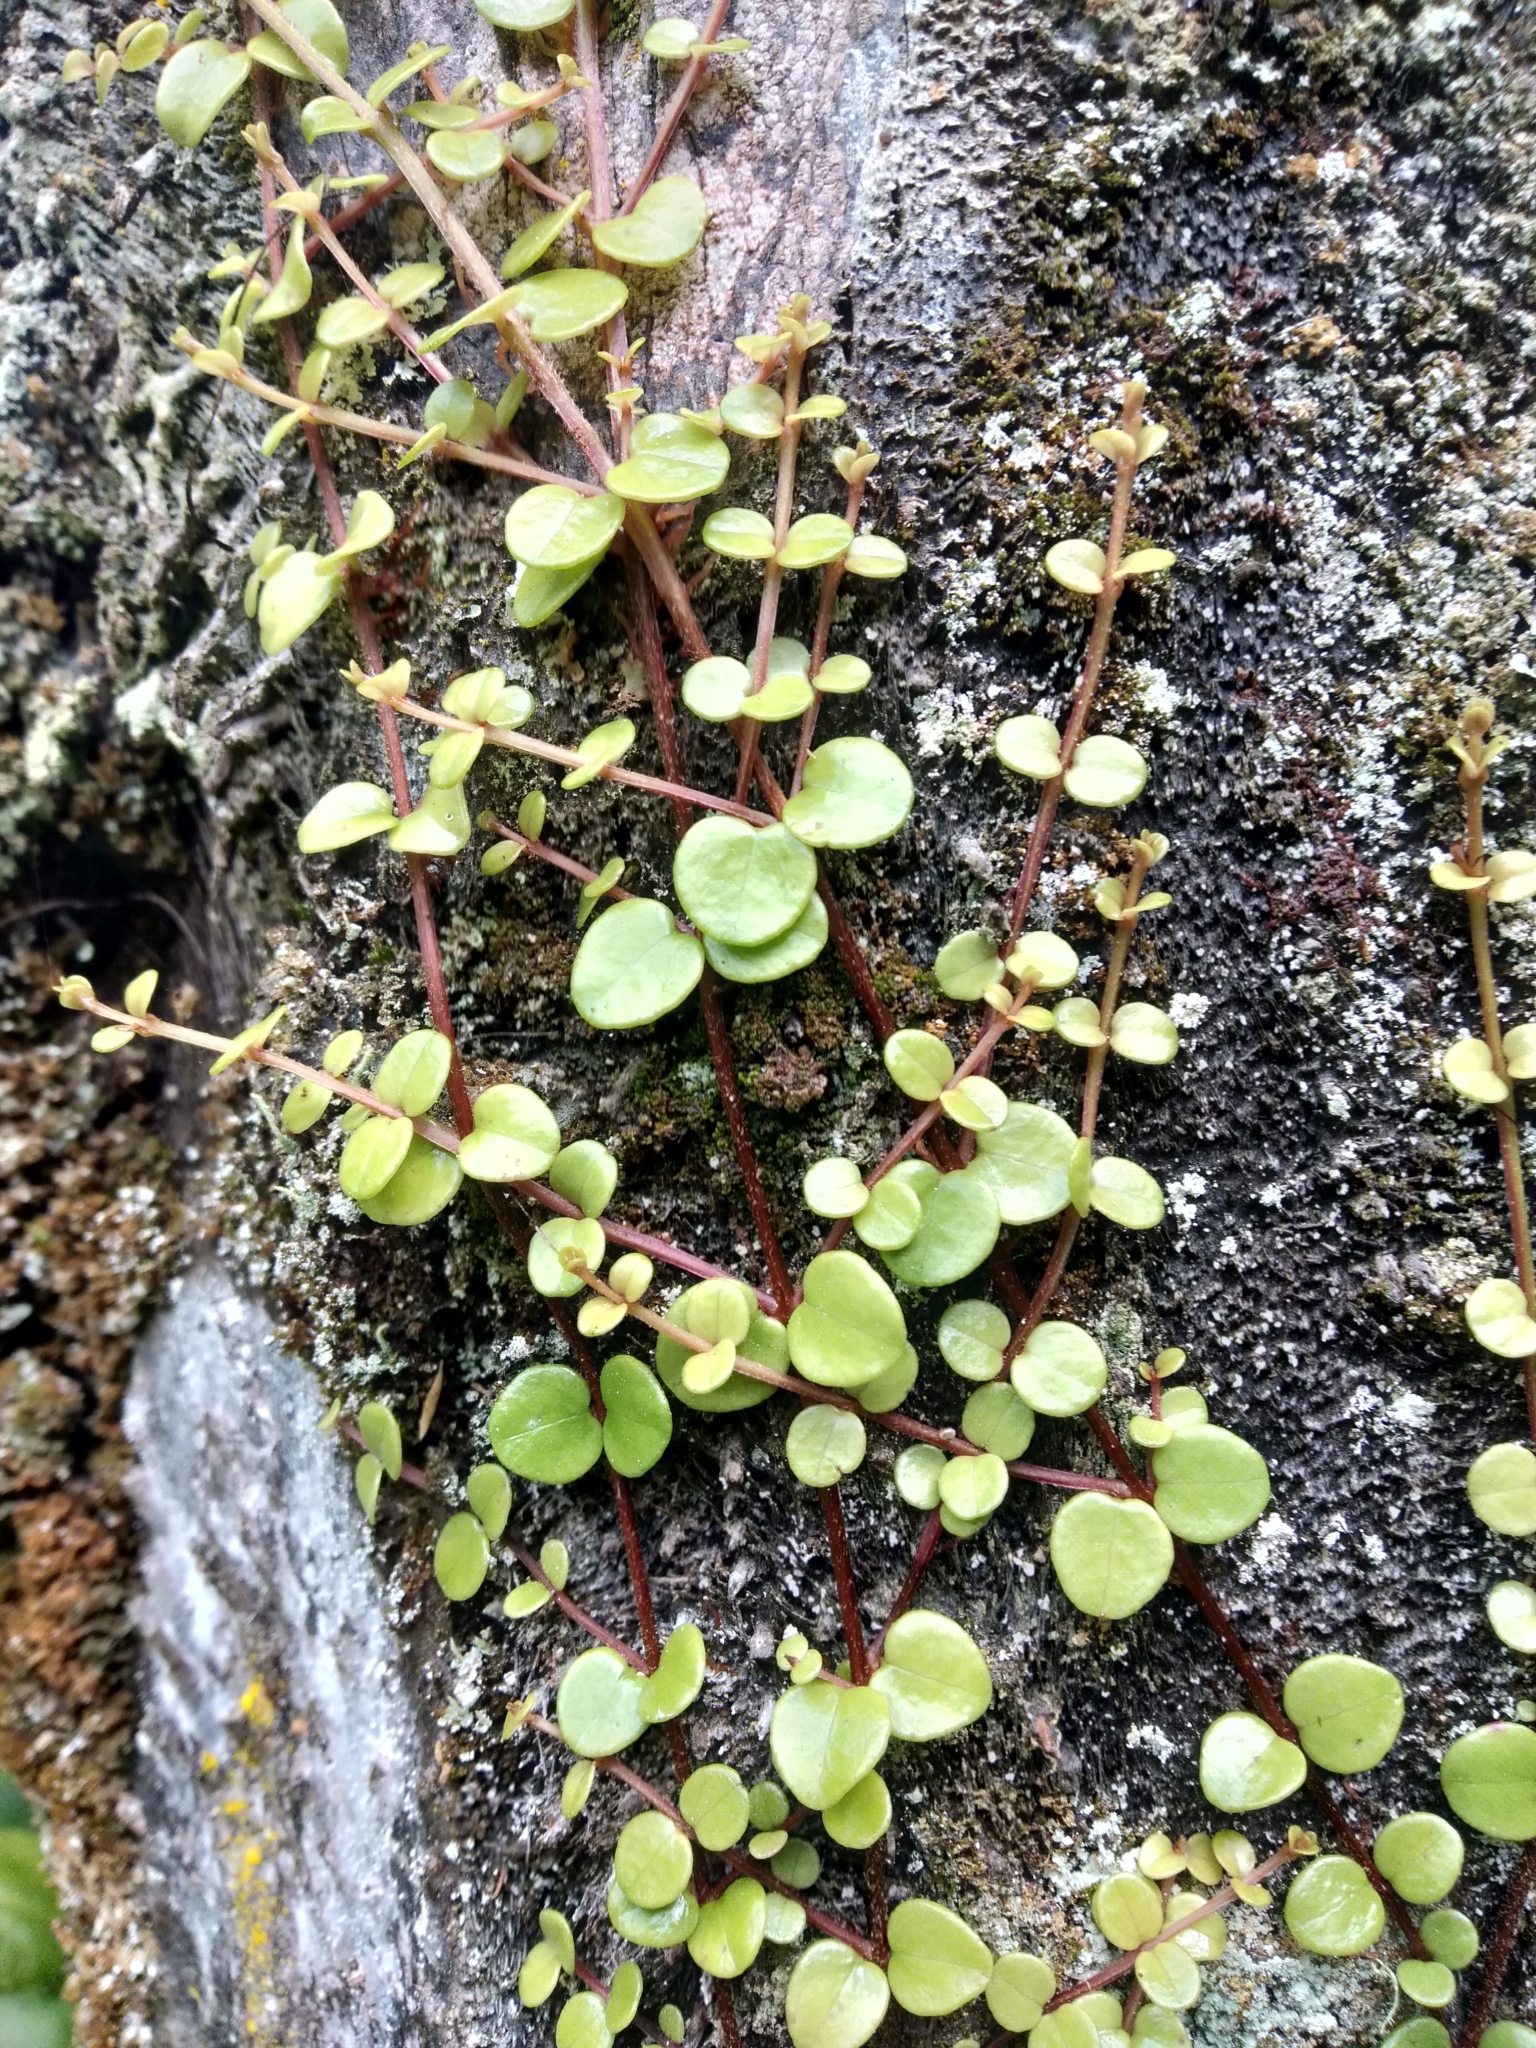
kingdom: Plantae
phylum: Tracheophyta
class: Magnoliopsida
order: Myrtales
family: Myrtaceae
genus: Metrosideros
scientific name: Metrosideros perforata
